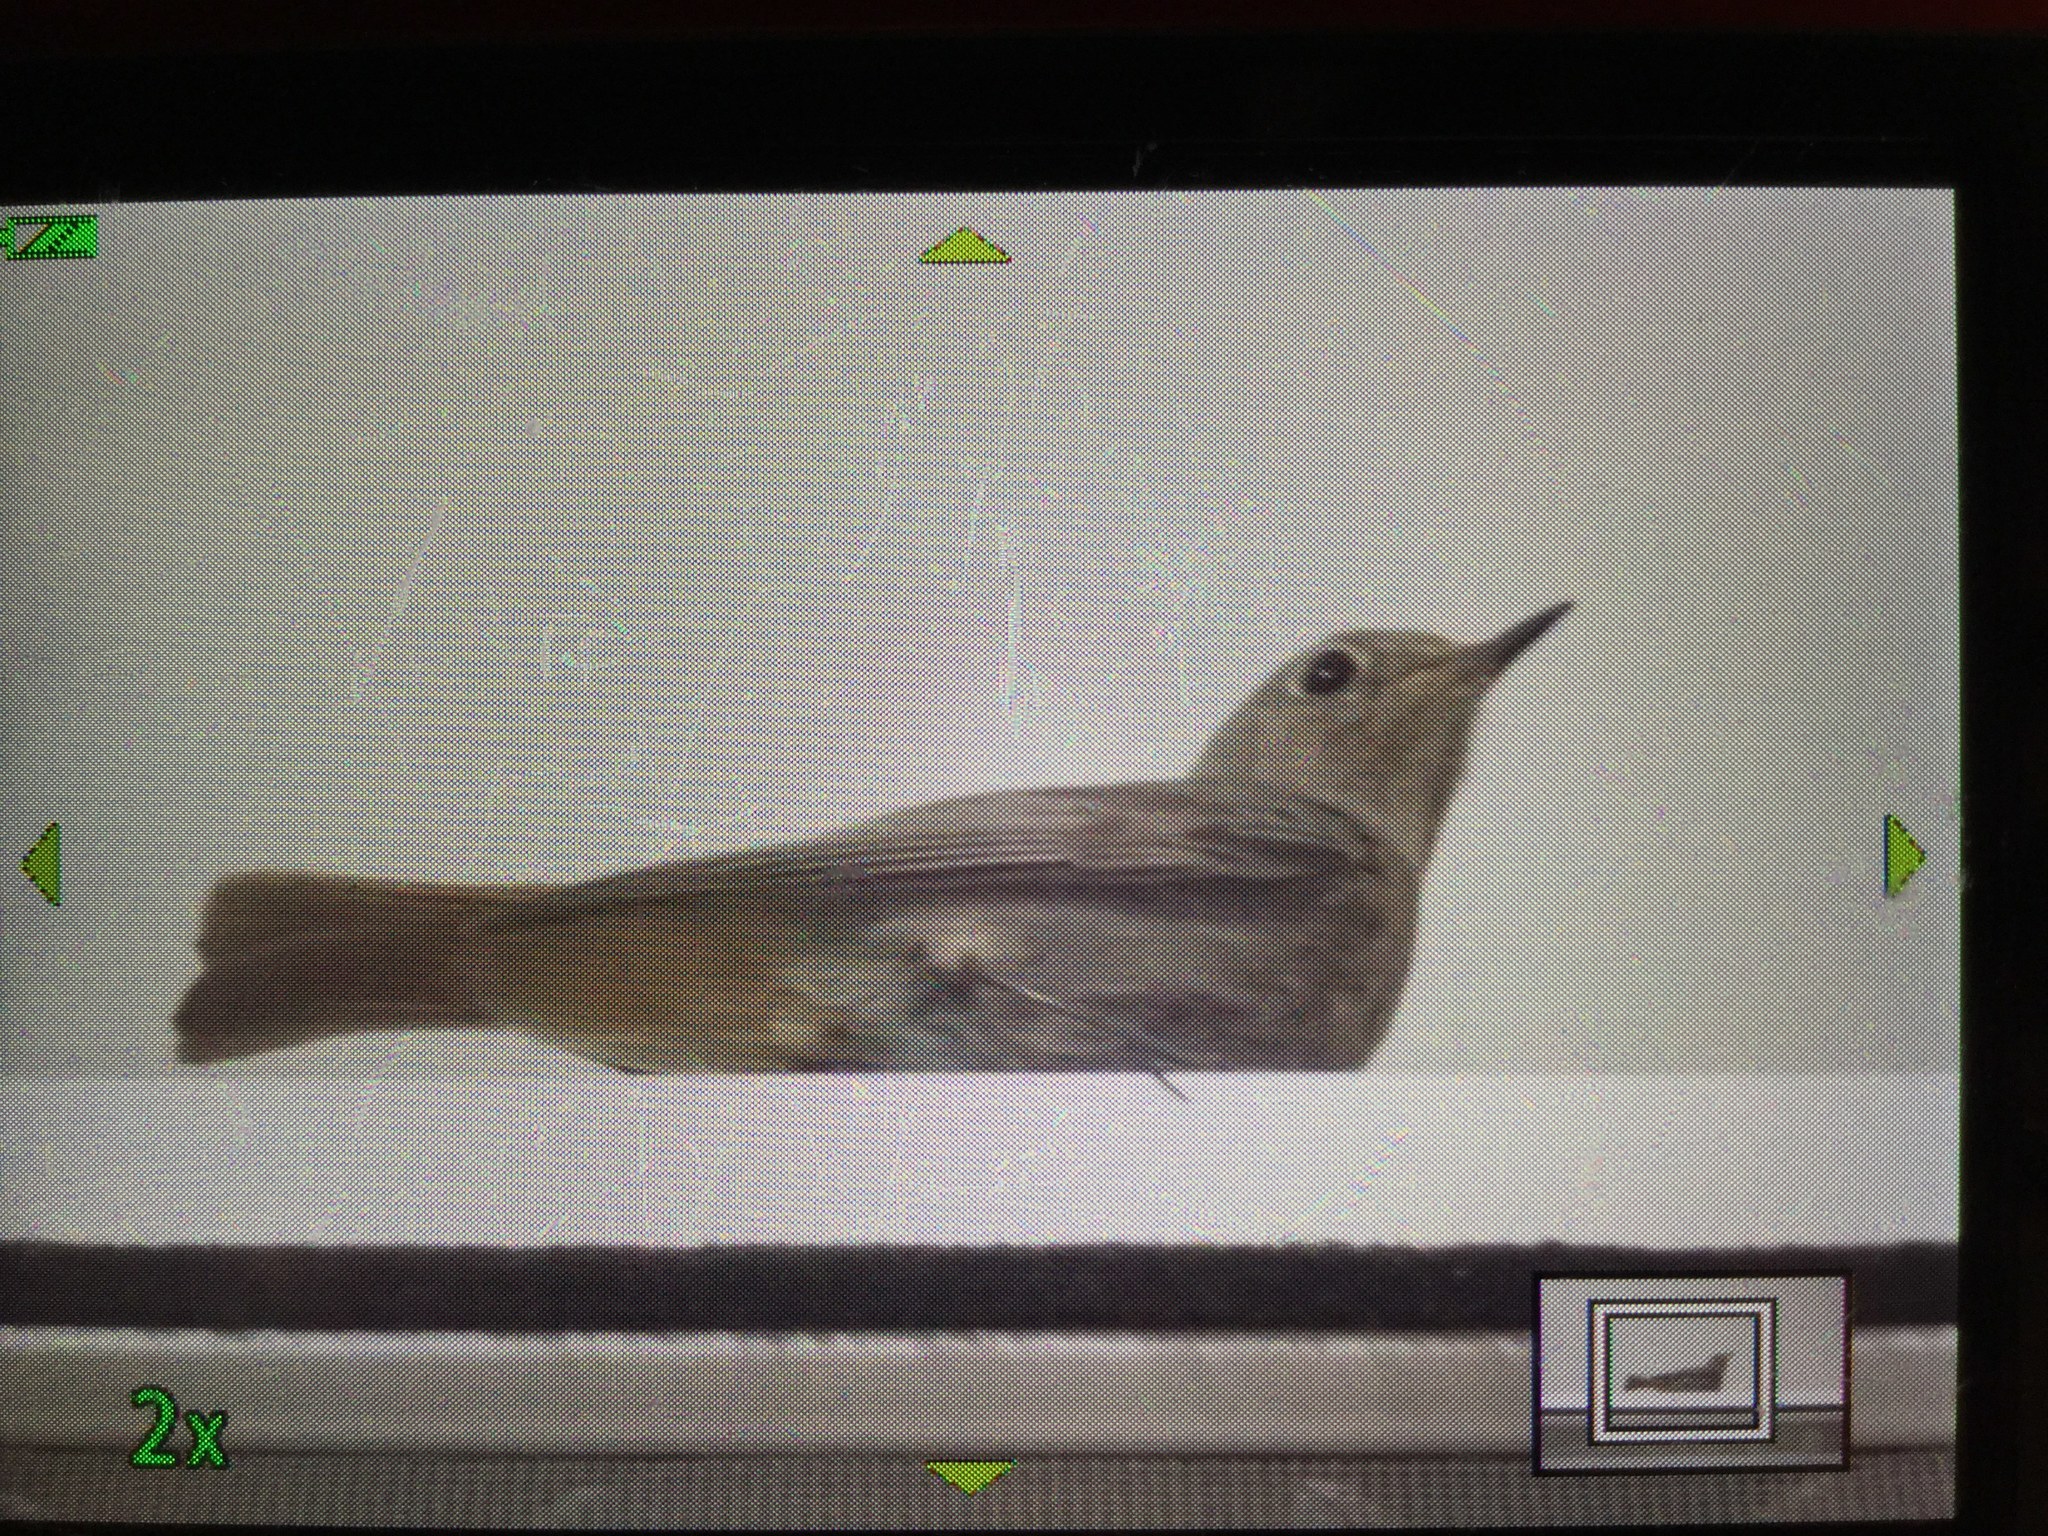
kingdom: Animalia
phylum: Chordata
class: Aves
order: Passeriformes
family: Muscicapidae
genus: Phoenicurus
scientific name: Phoenicurus ochruros
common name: Black redstart
